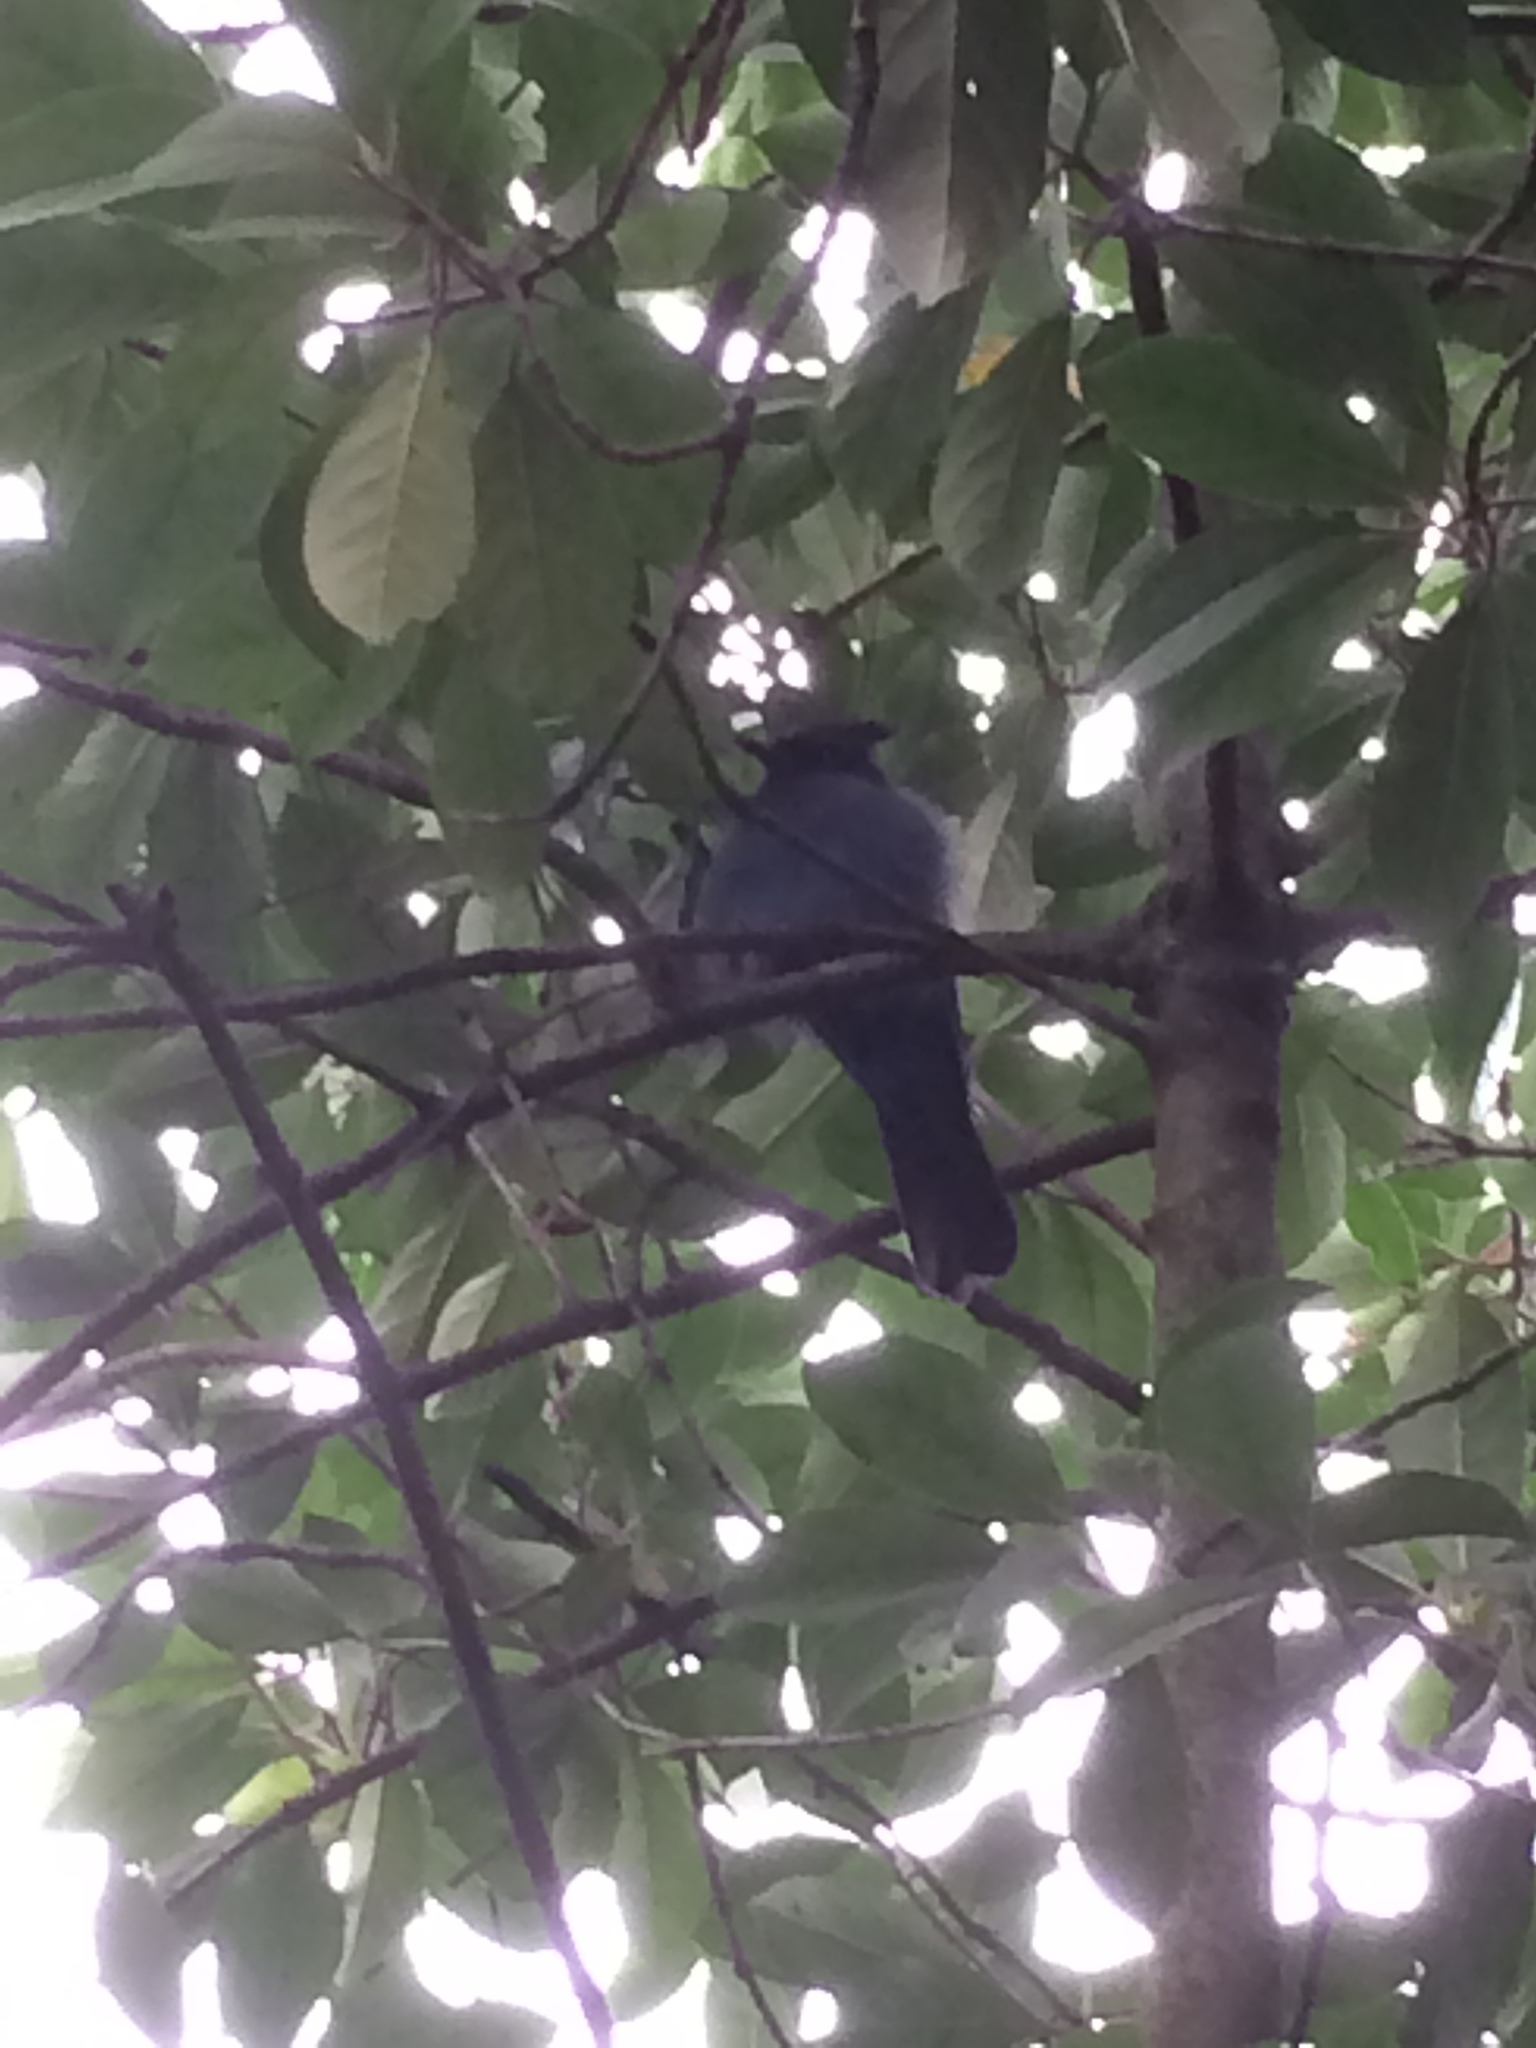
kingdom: Animalia
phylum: Chordata
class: Aves
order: Passeriformes
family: Corvidae
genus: Cyanocitta
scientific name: Cyanocitta stelleri
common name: Steller's jay
